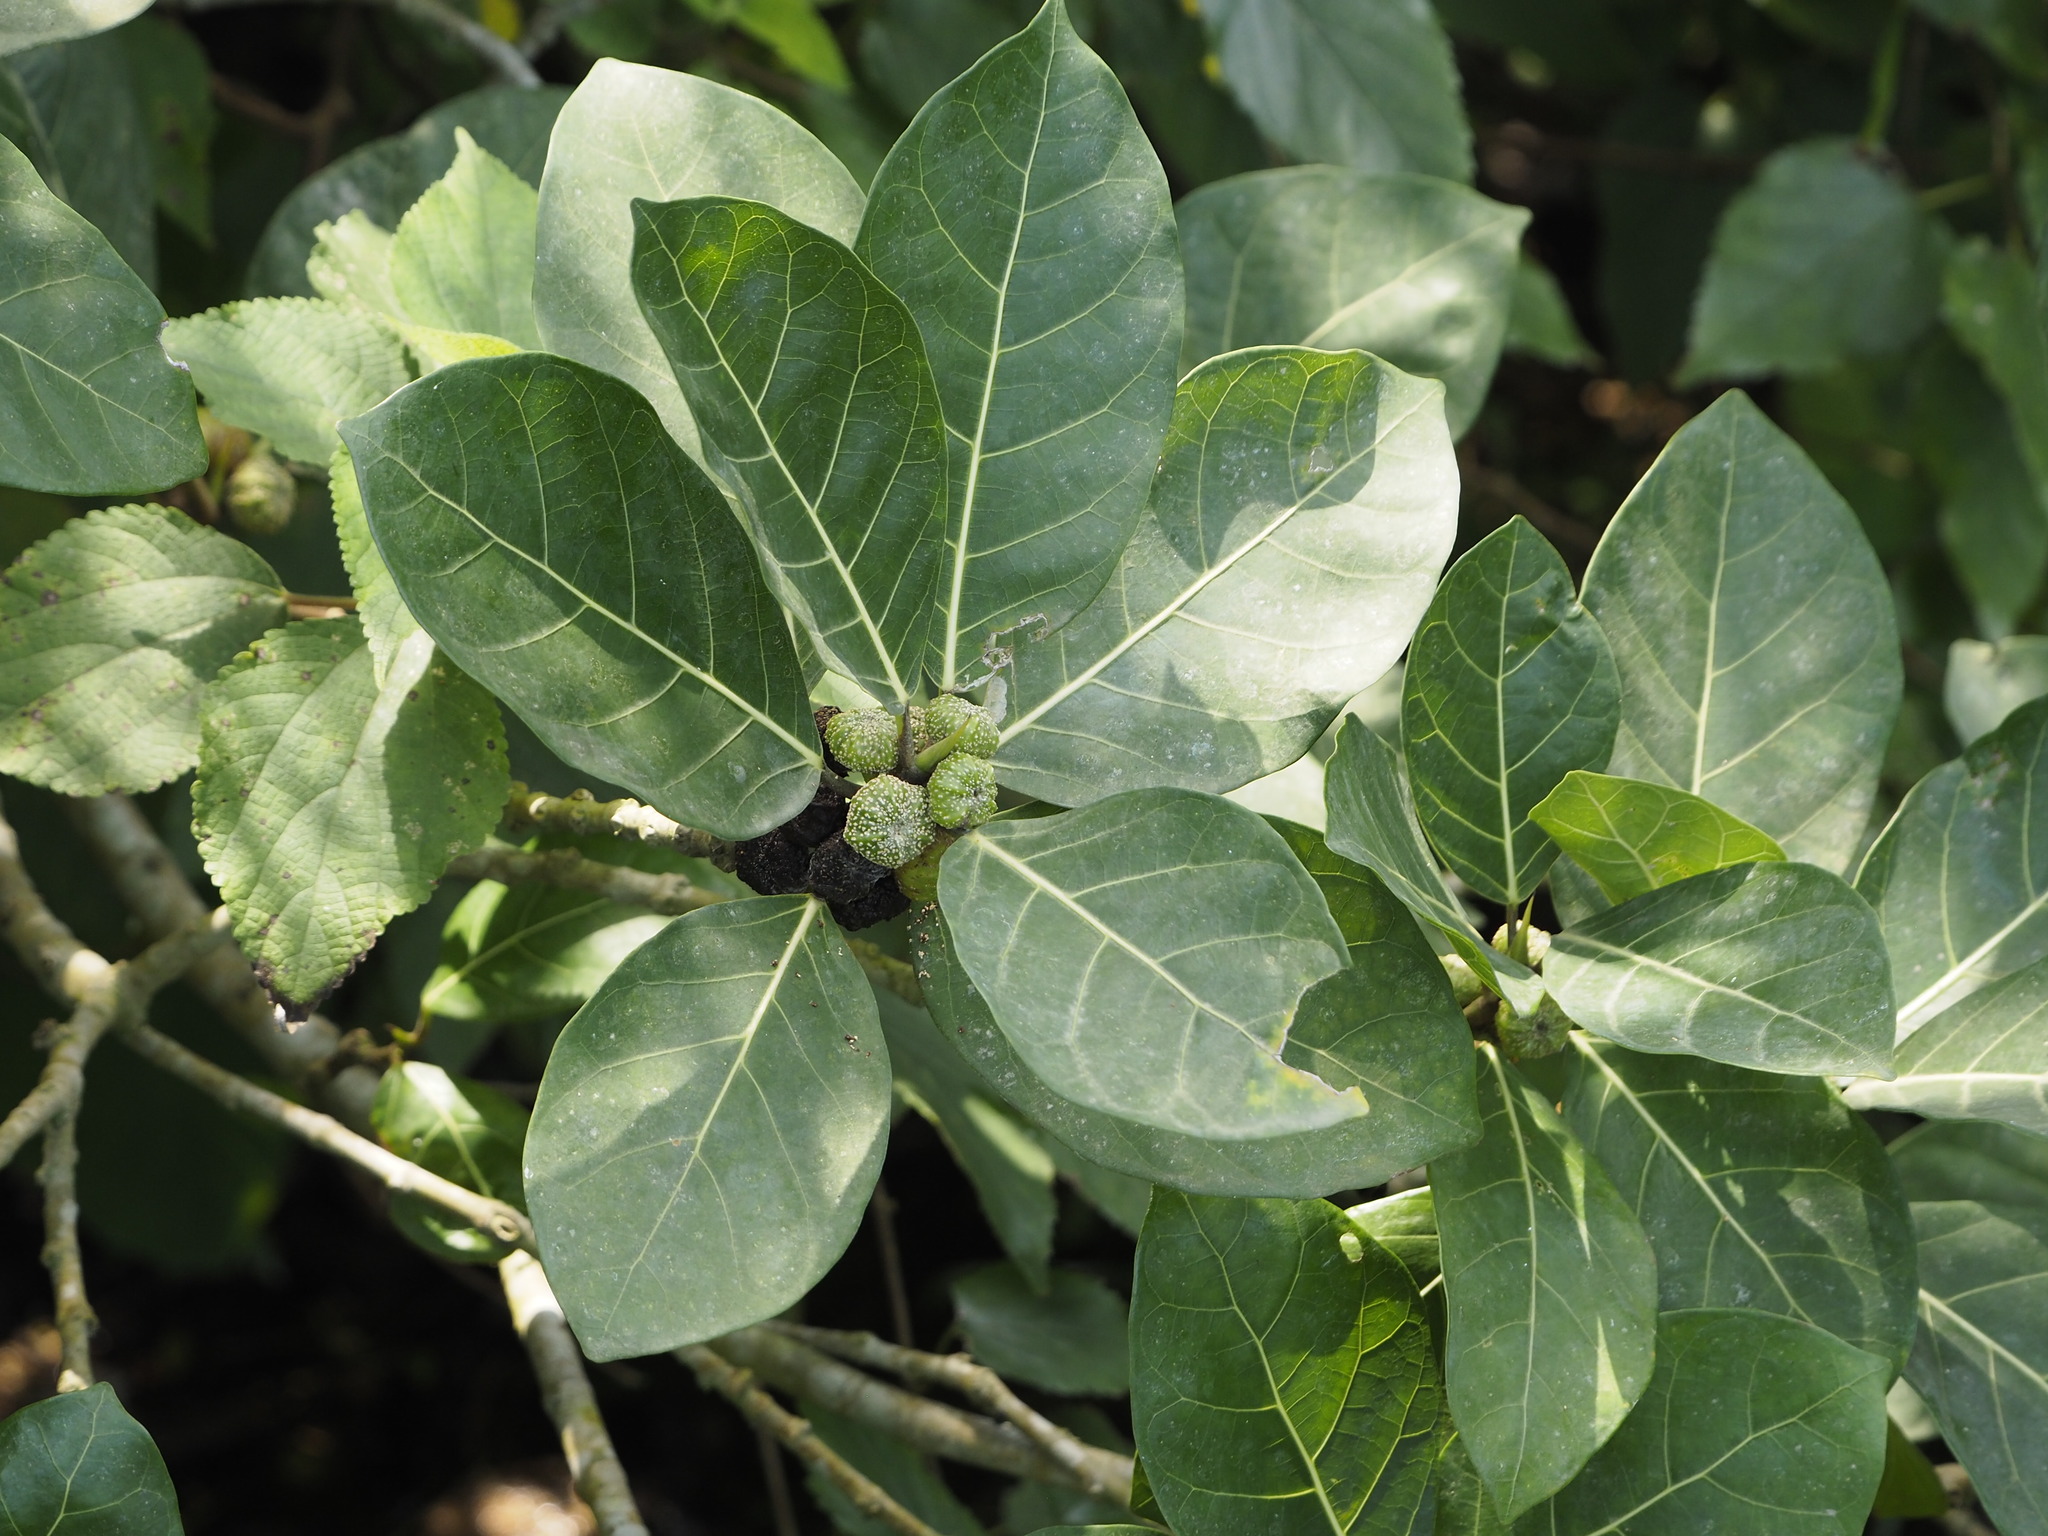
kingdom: Plantae
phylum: Tracheophyta
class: Magnoliopsida
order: Rosales
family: Moraceae
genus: Ficus
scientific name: Ficus septica
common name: Septic fig
